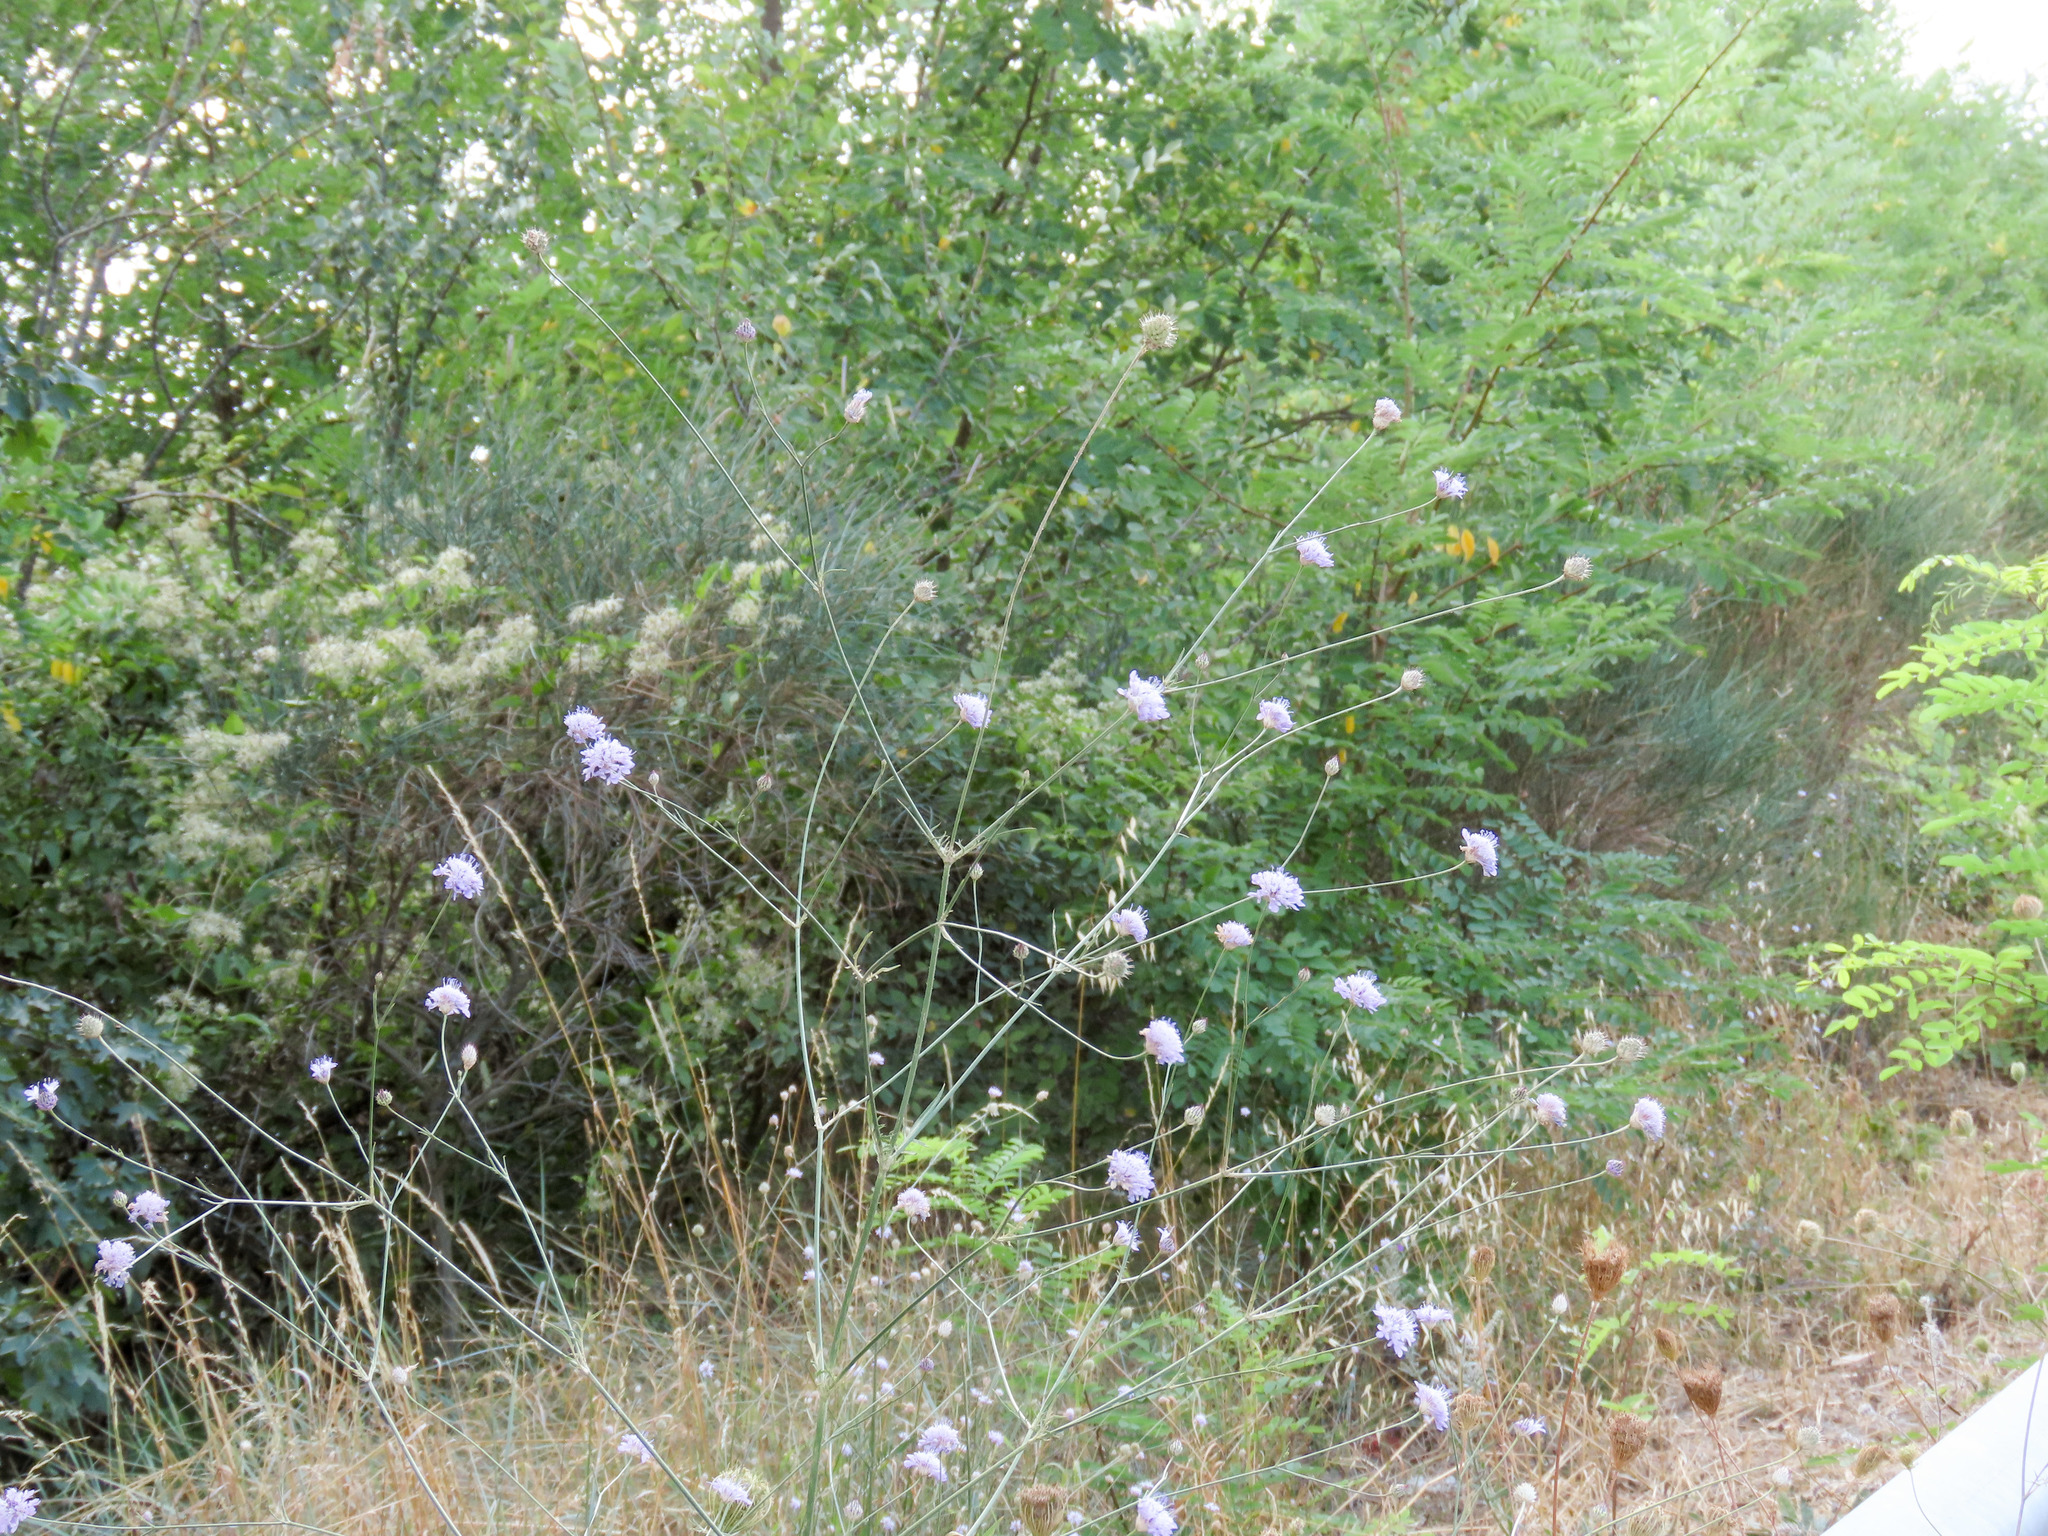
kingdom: Plantae
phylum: Tracheophyta
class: Magnoliopsida
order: Dipsacales
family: Caprifoliaceae
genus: Cephalaria
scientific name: Cephalaria transsylvanica
